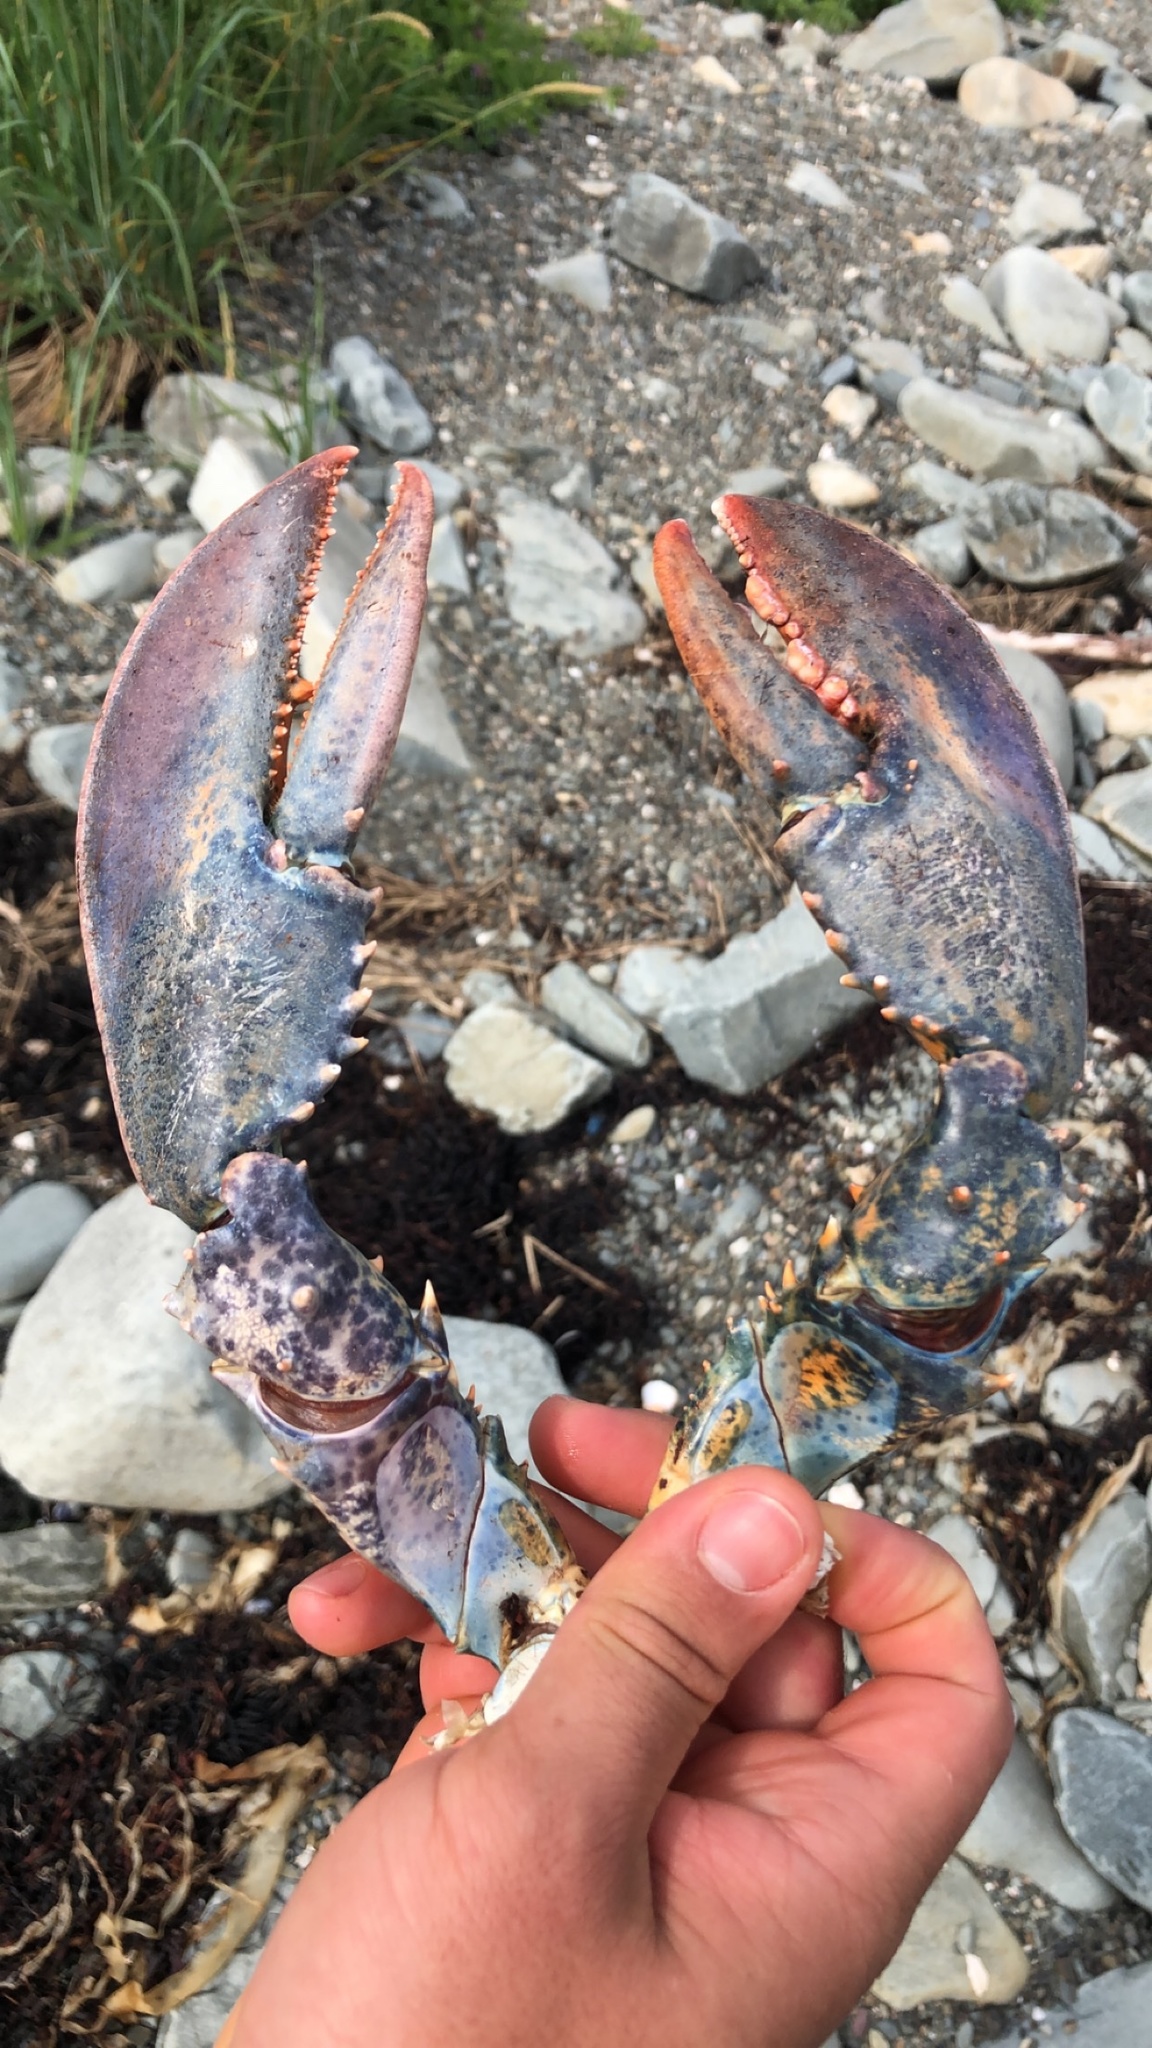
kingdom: Animalia
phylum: Arthropoda
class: Malacostraca
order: Decapoda
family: Nephropidae
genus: Homarus
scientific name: Homarus americanus
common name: American lobster
